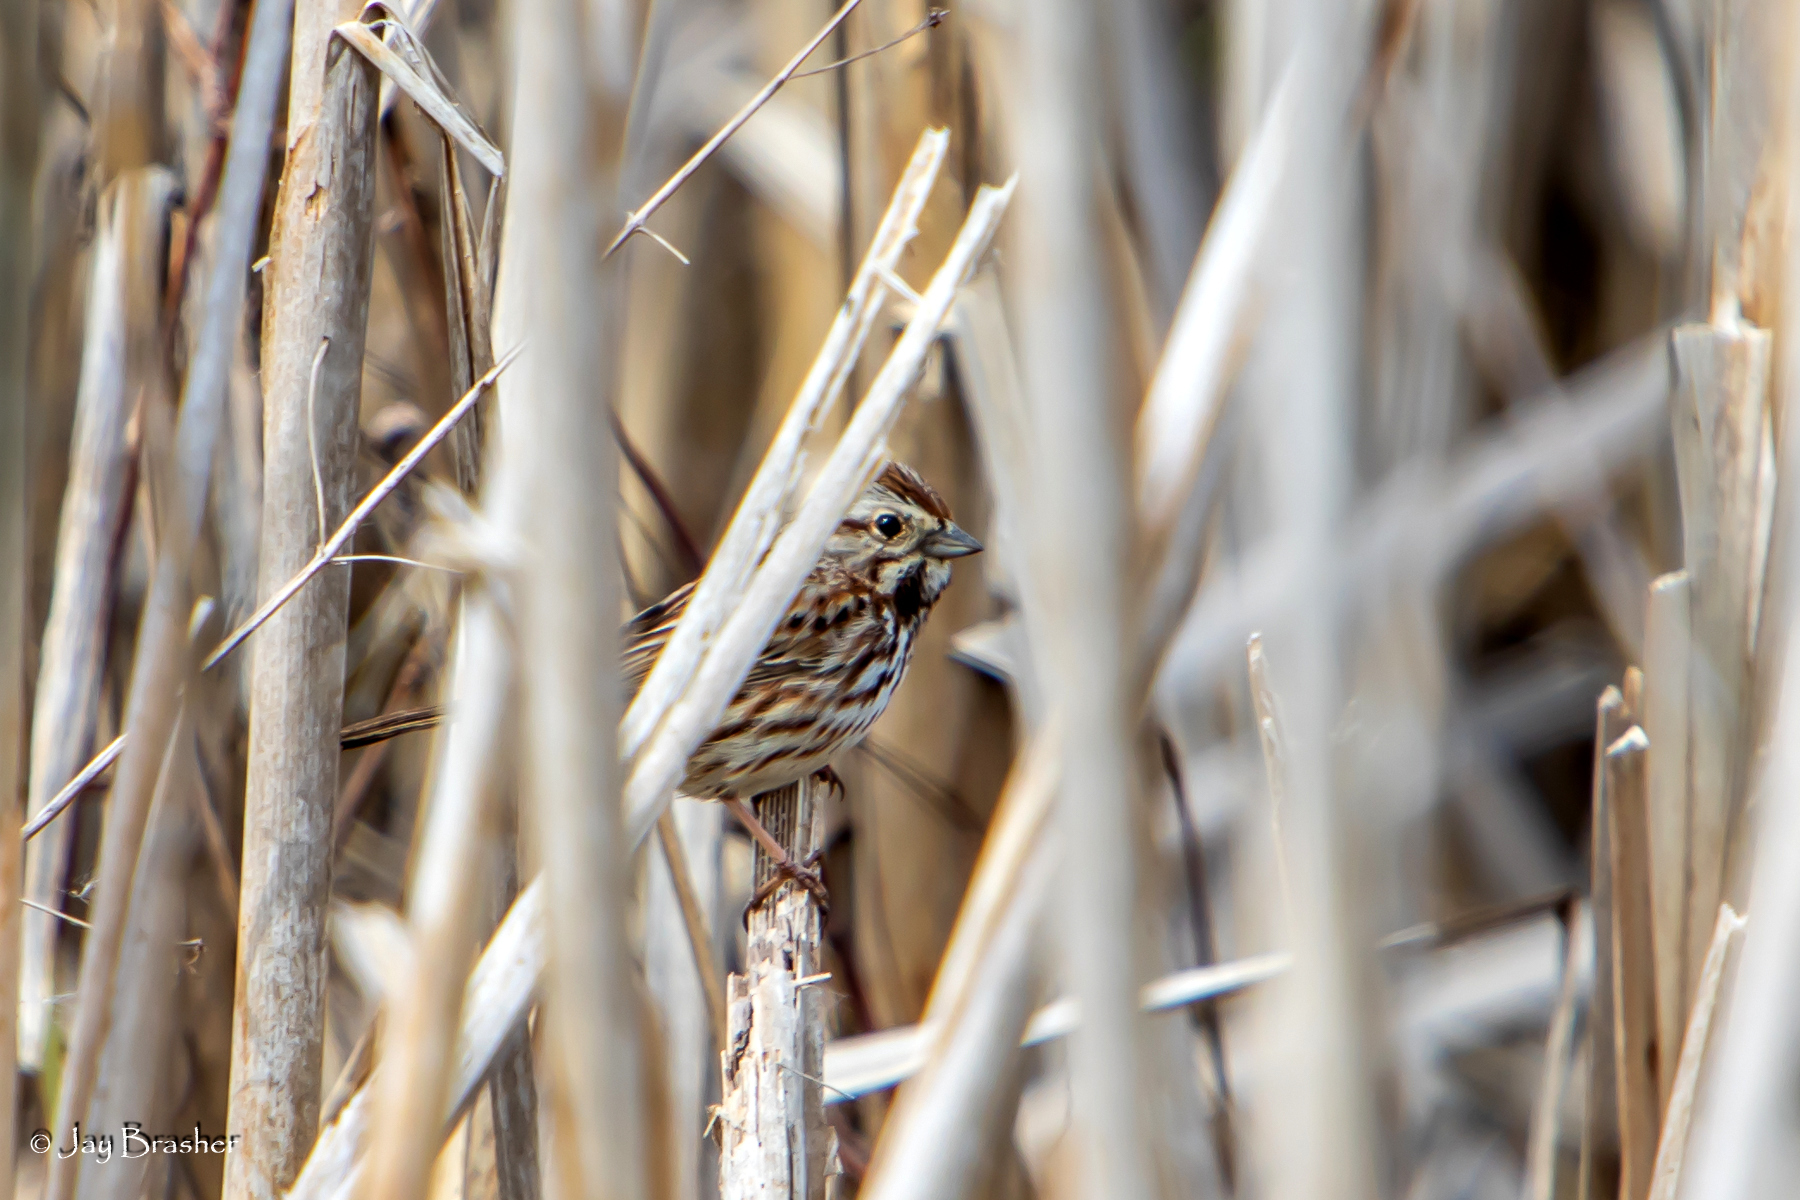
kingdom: Animalia
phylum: Chordata
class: Aves
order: Passeriformes
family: Passerellidae
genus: Melospiza
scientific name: Melospiza melodia
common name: Song sparrow
